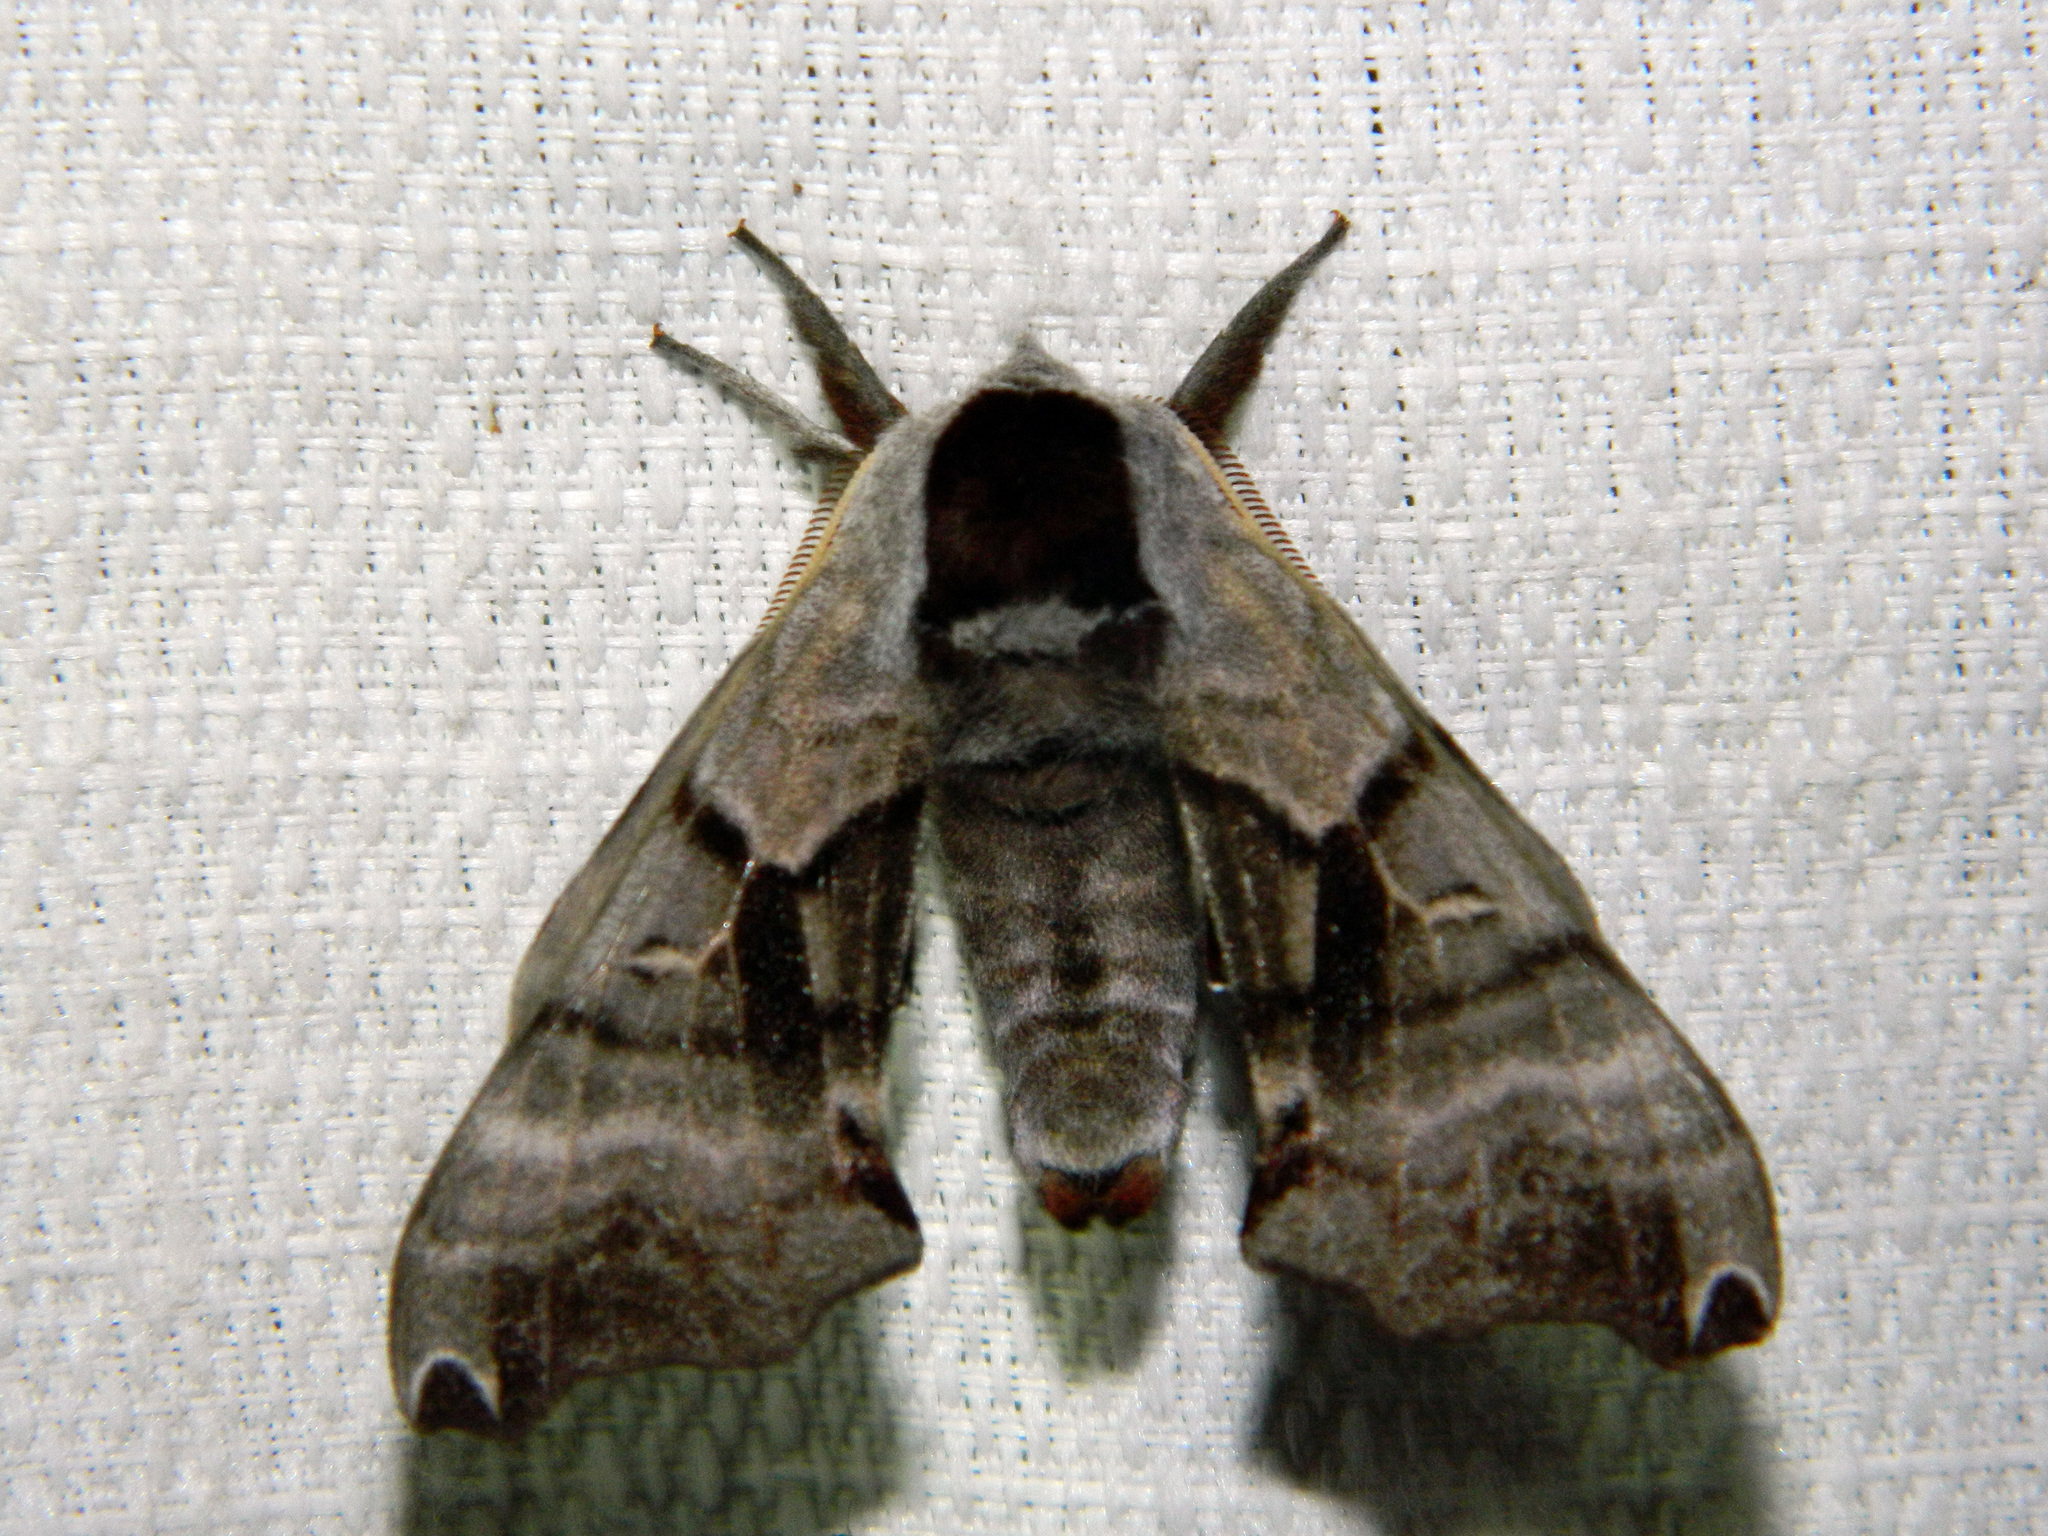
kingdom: Animalia
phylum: Arthropoda
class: Insecta
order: Lepidoptera
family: Sphingidae
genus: Smerinthus
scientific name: Smerinthus jamaicensis
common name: Twin spotted sphinx
